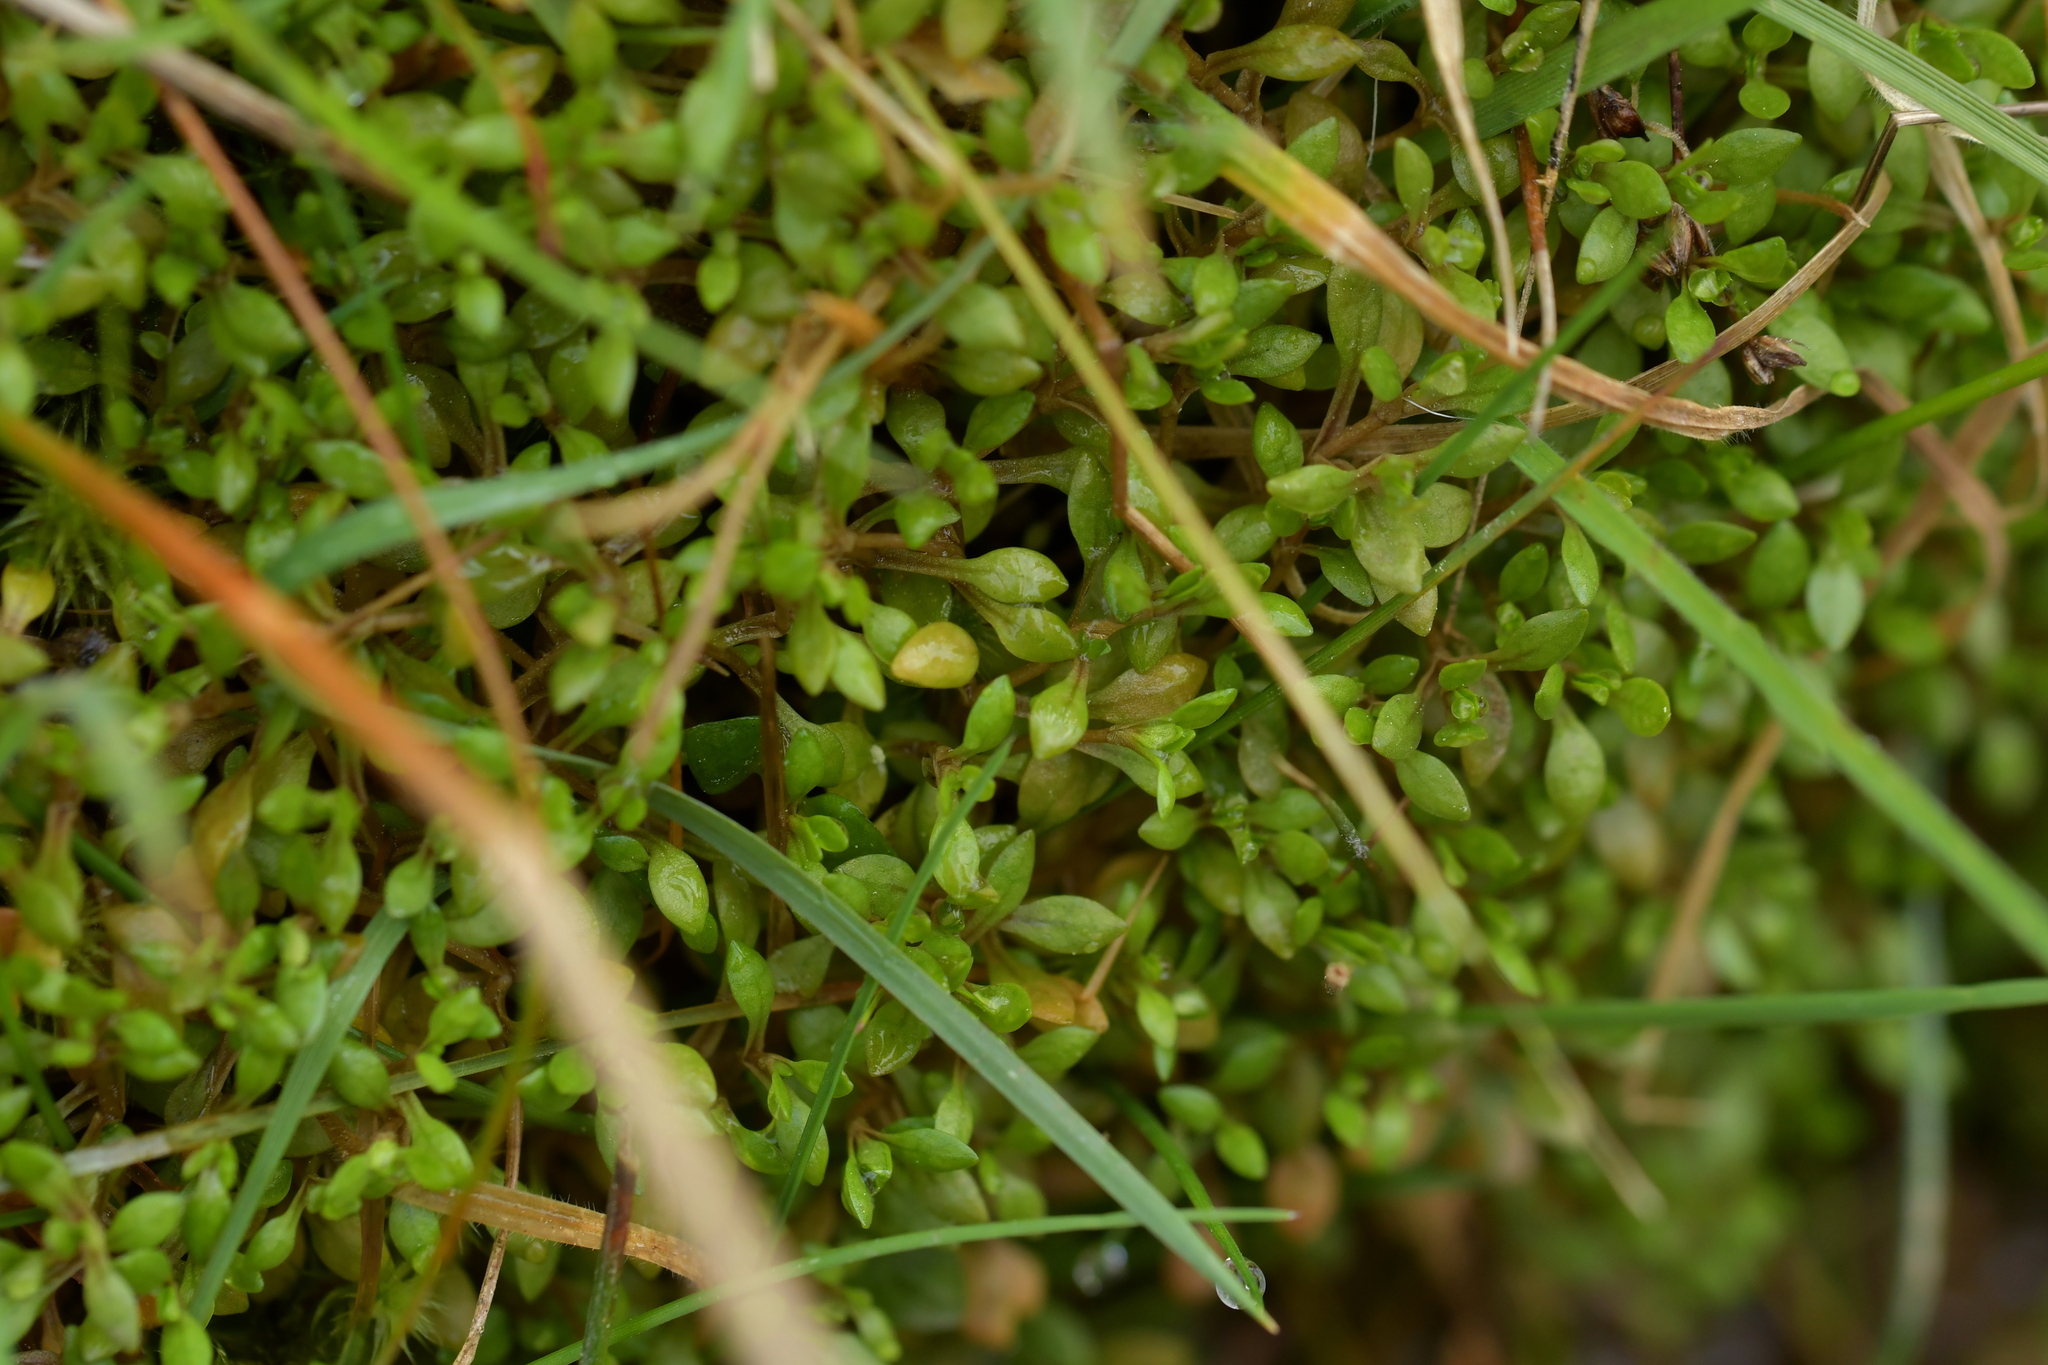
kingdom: Plantae
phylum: Tracheophyta
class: Magnoliopsida
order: Caryophyllales
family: Montiaceae
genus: Montia
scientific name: Montia fontana
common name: Blinks
